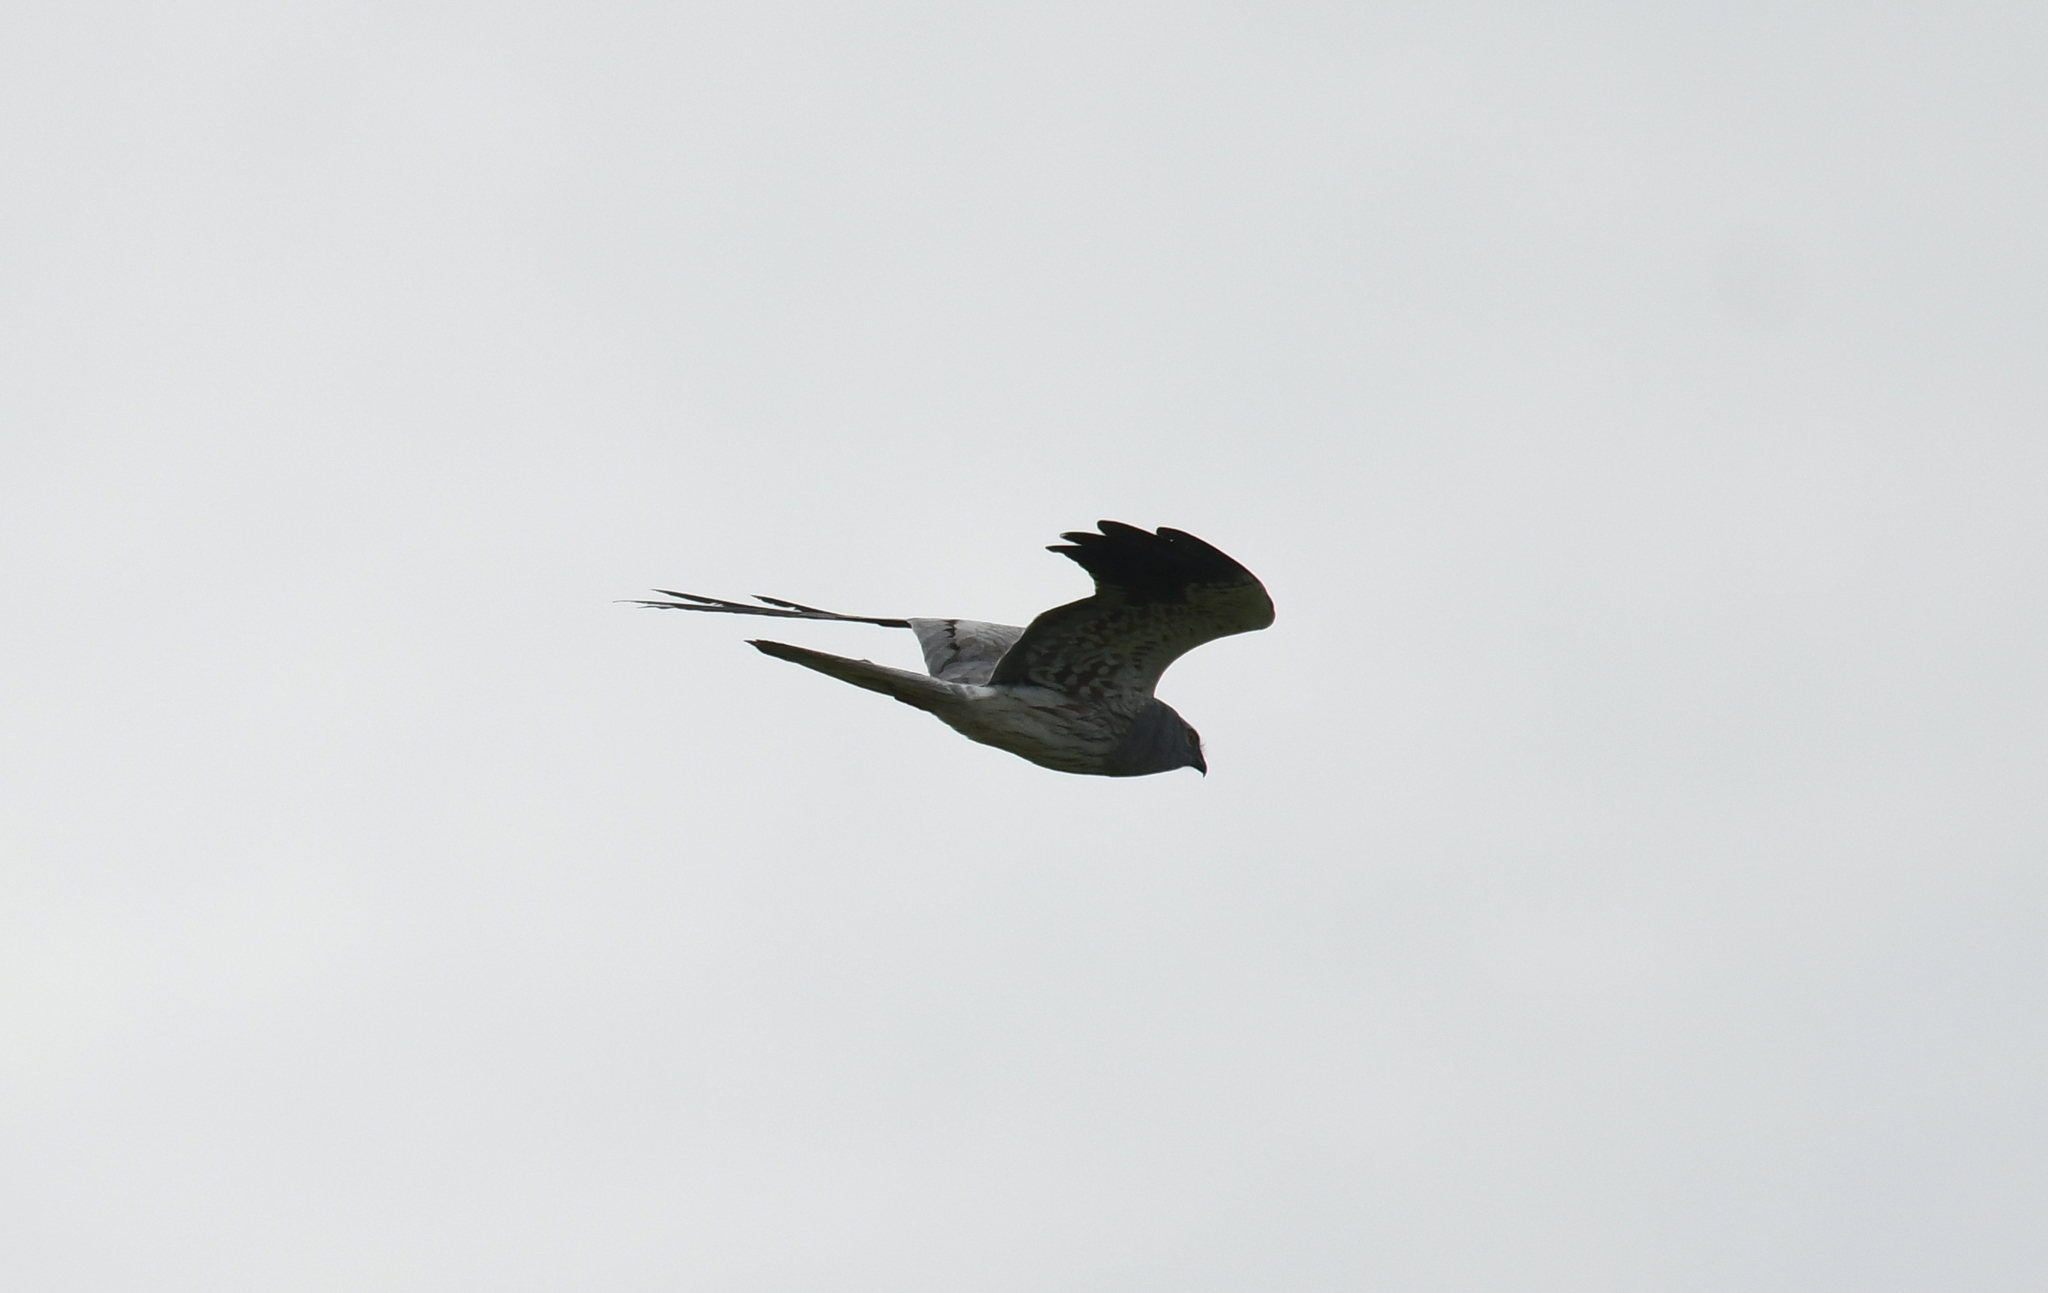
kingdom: Animalia
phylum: Chordata
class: Aves
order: Accipitriformes
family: Accipitridae
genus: Circus
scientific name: Circus pygargus
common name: Montagu's harrier
